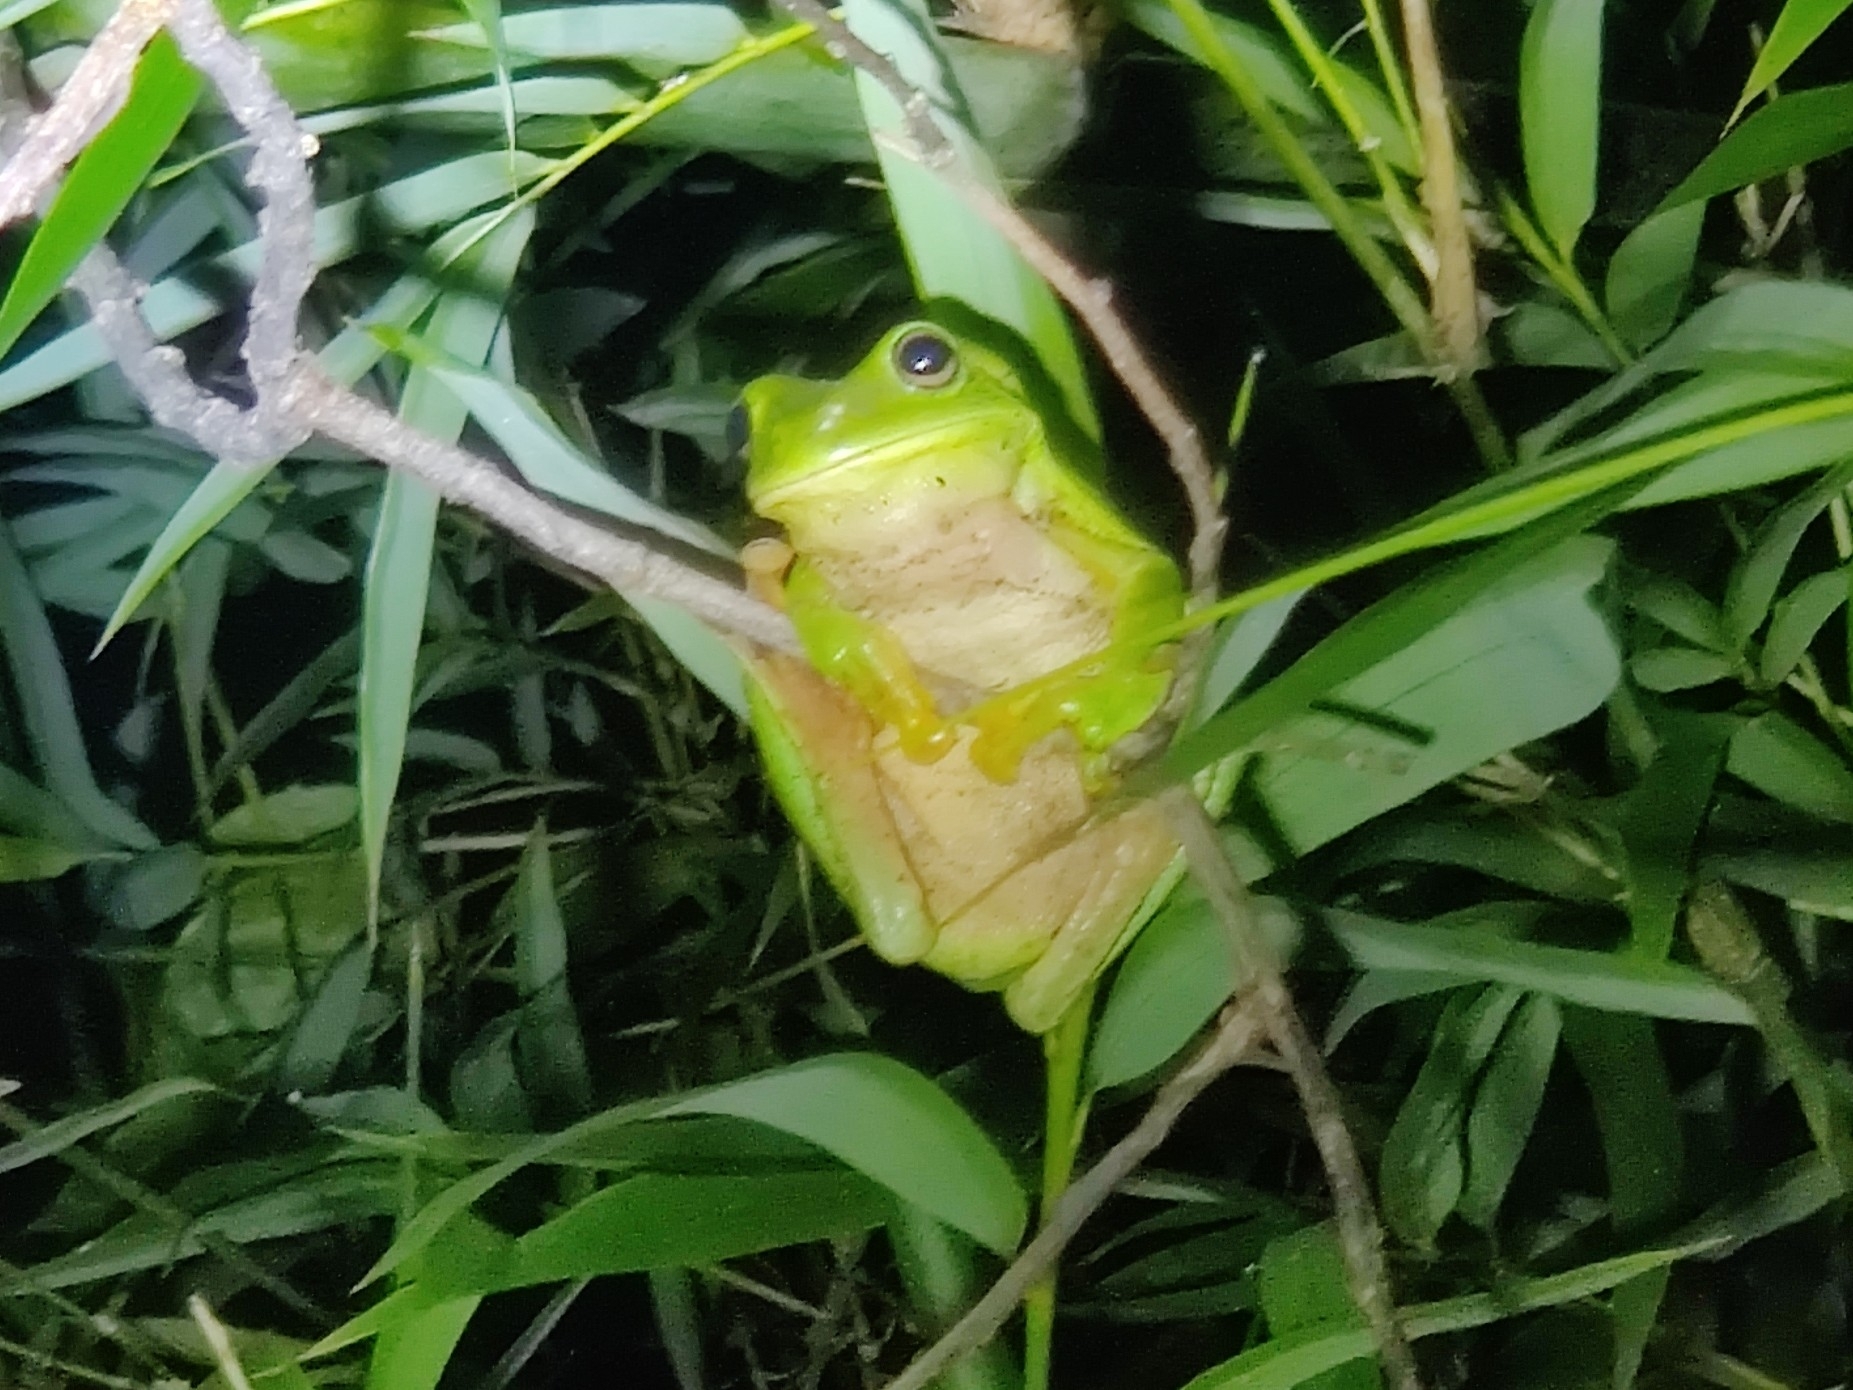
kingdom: Animalia
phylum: Chordata
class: Amphibia
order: Anura
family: Pelodryadidae
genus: Ranoidea
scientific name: Ranoidea caerulea
